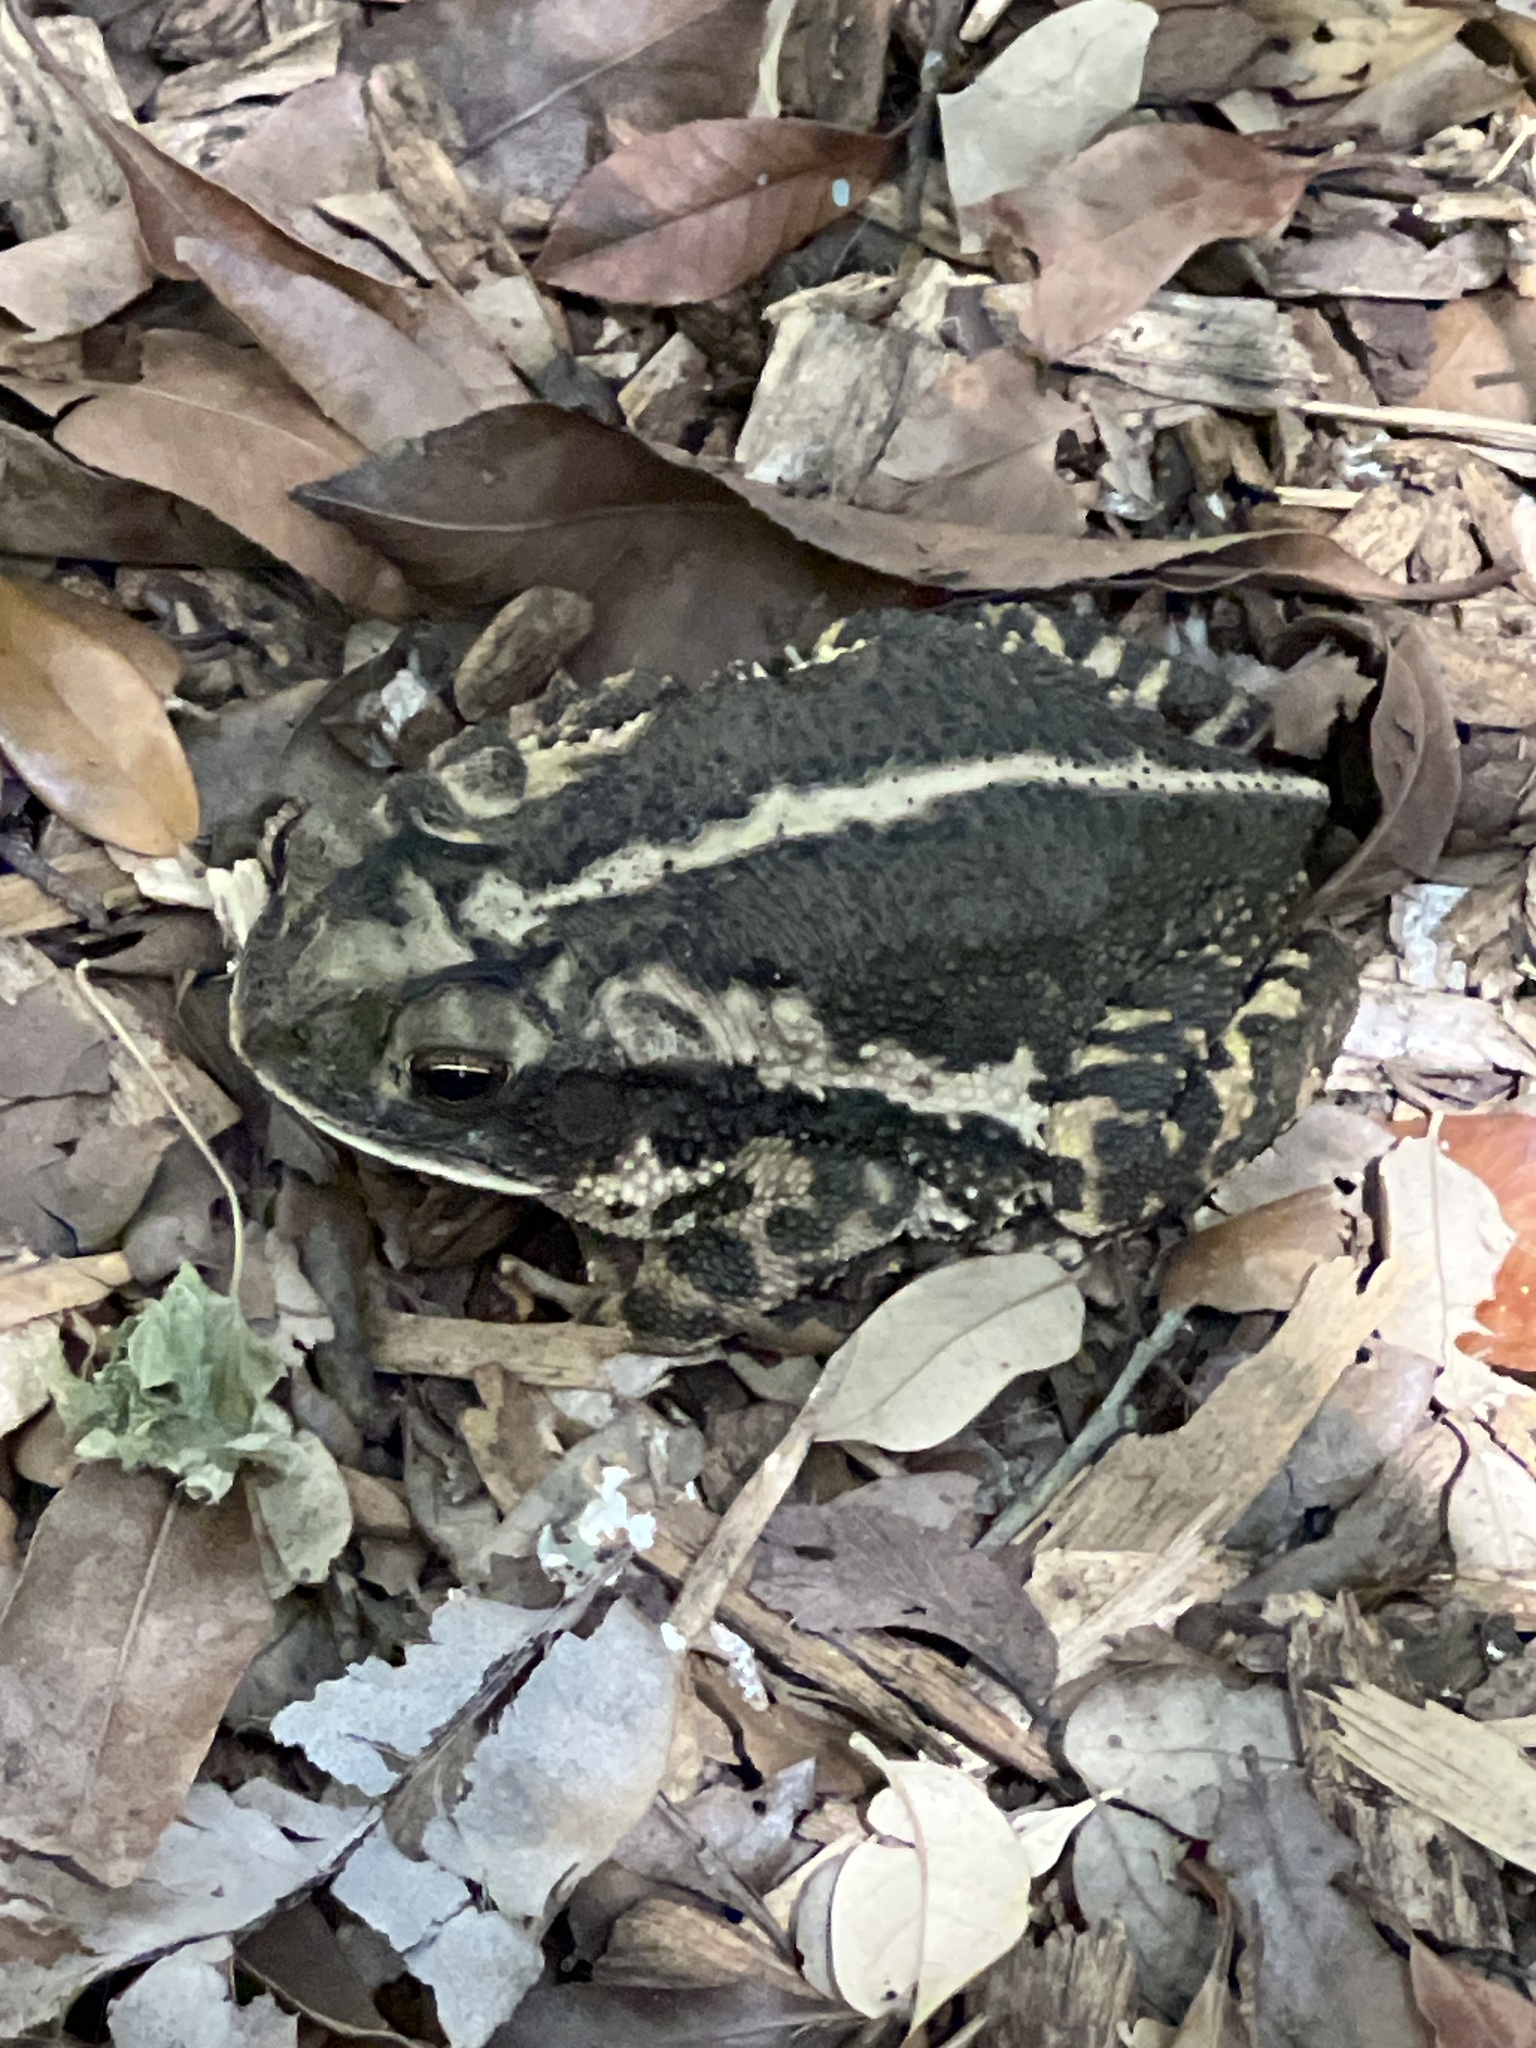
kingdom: Animalia
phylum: Chordata
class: Amphibia
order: Anura
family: Bufonidae
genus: Incilius
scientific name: Incilius nebulifer
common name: Gulf coast toad
